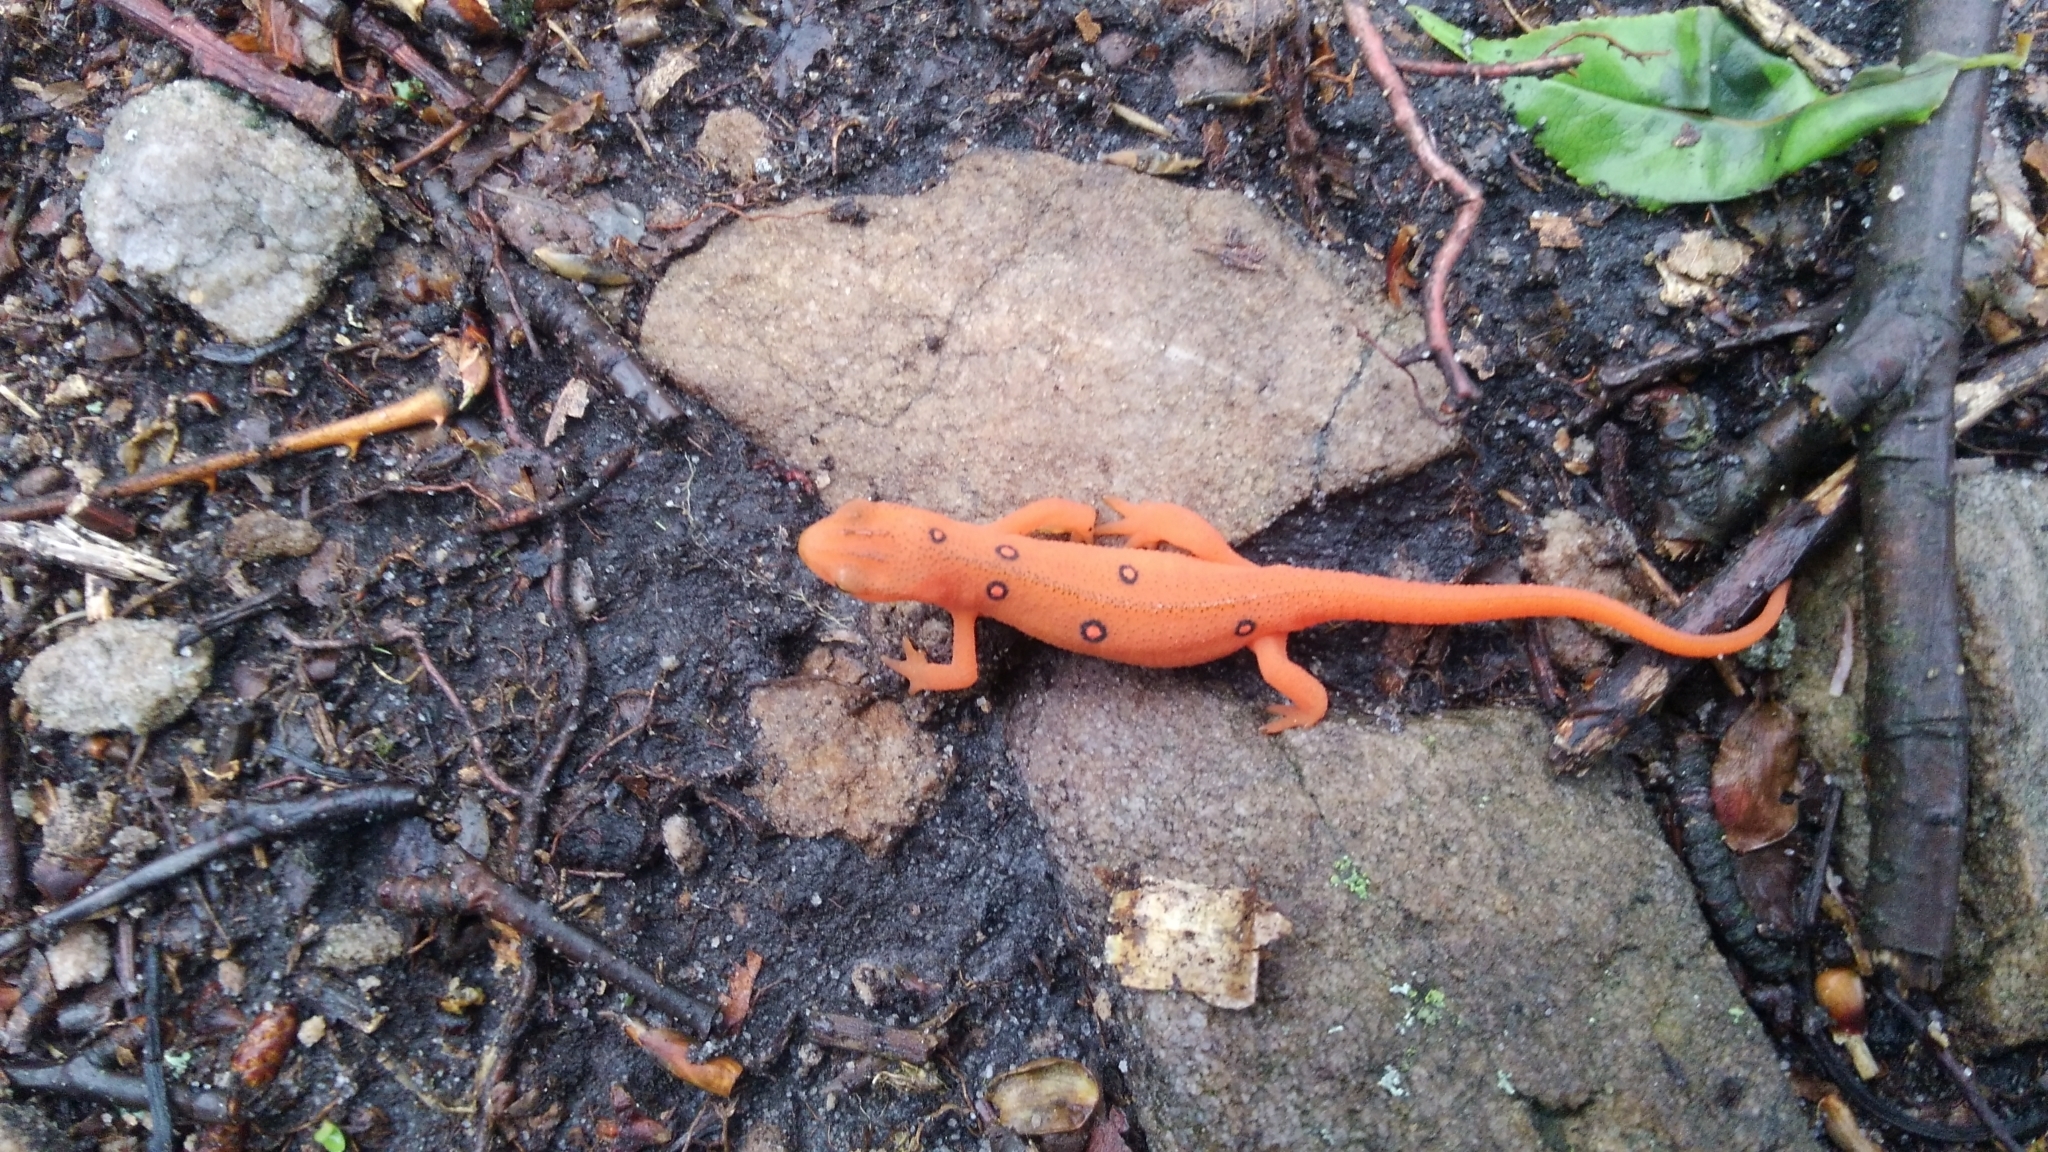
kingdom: Animalia
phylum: Chordata
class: Amphibia
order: Caudata
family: Salamandridae
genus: Notophthalmus
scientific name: Notophthalmus viridescens
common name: Eastern newt
